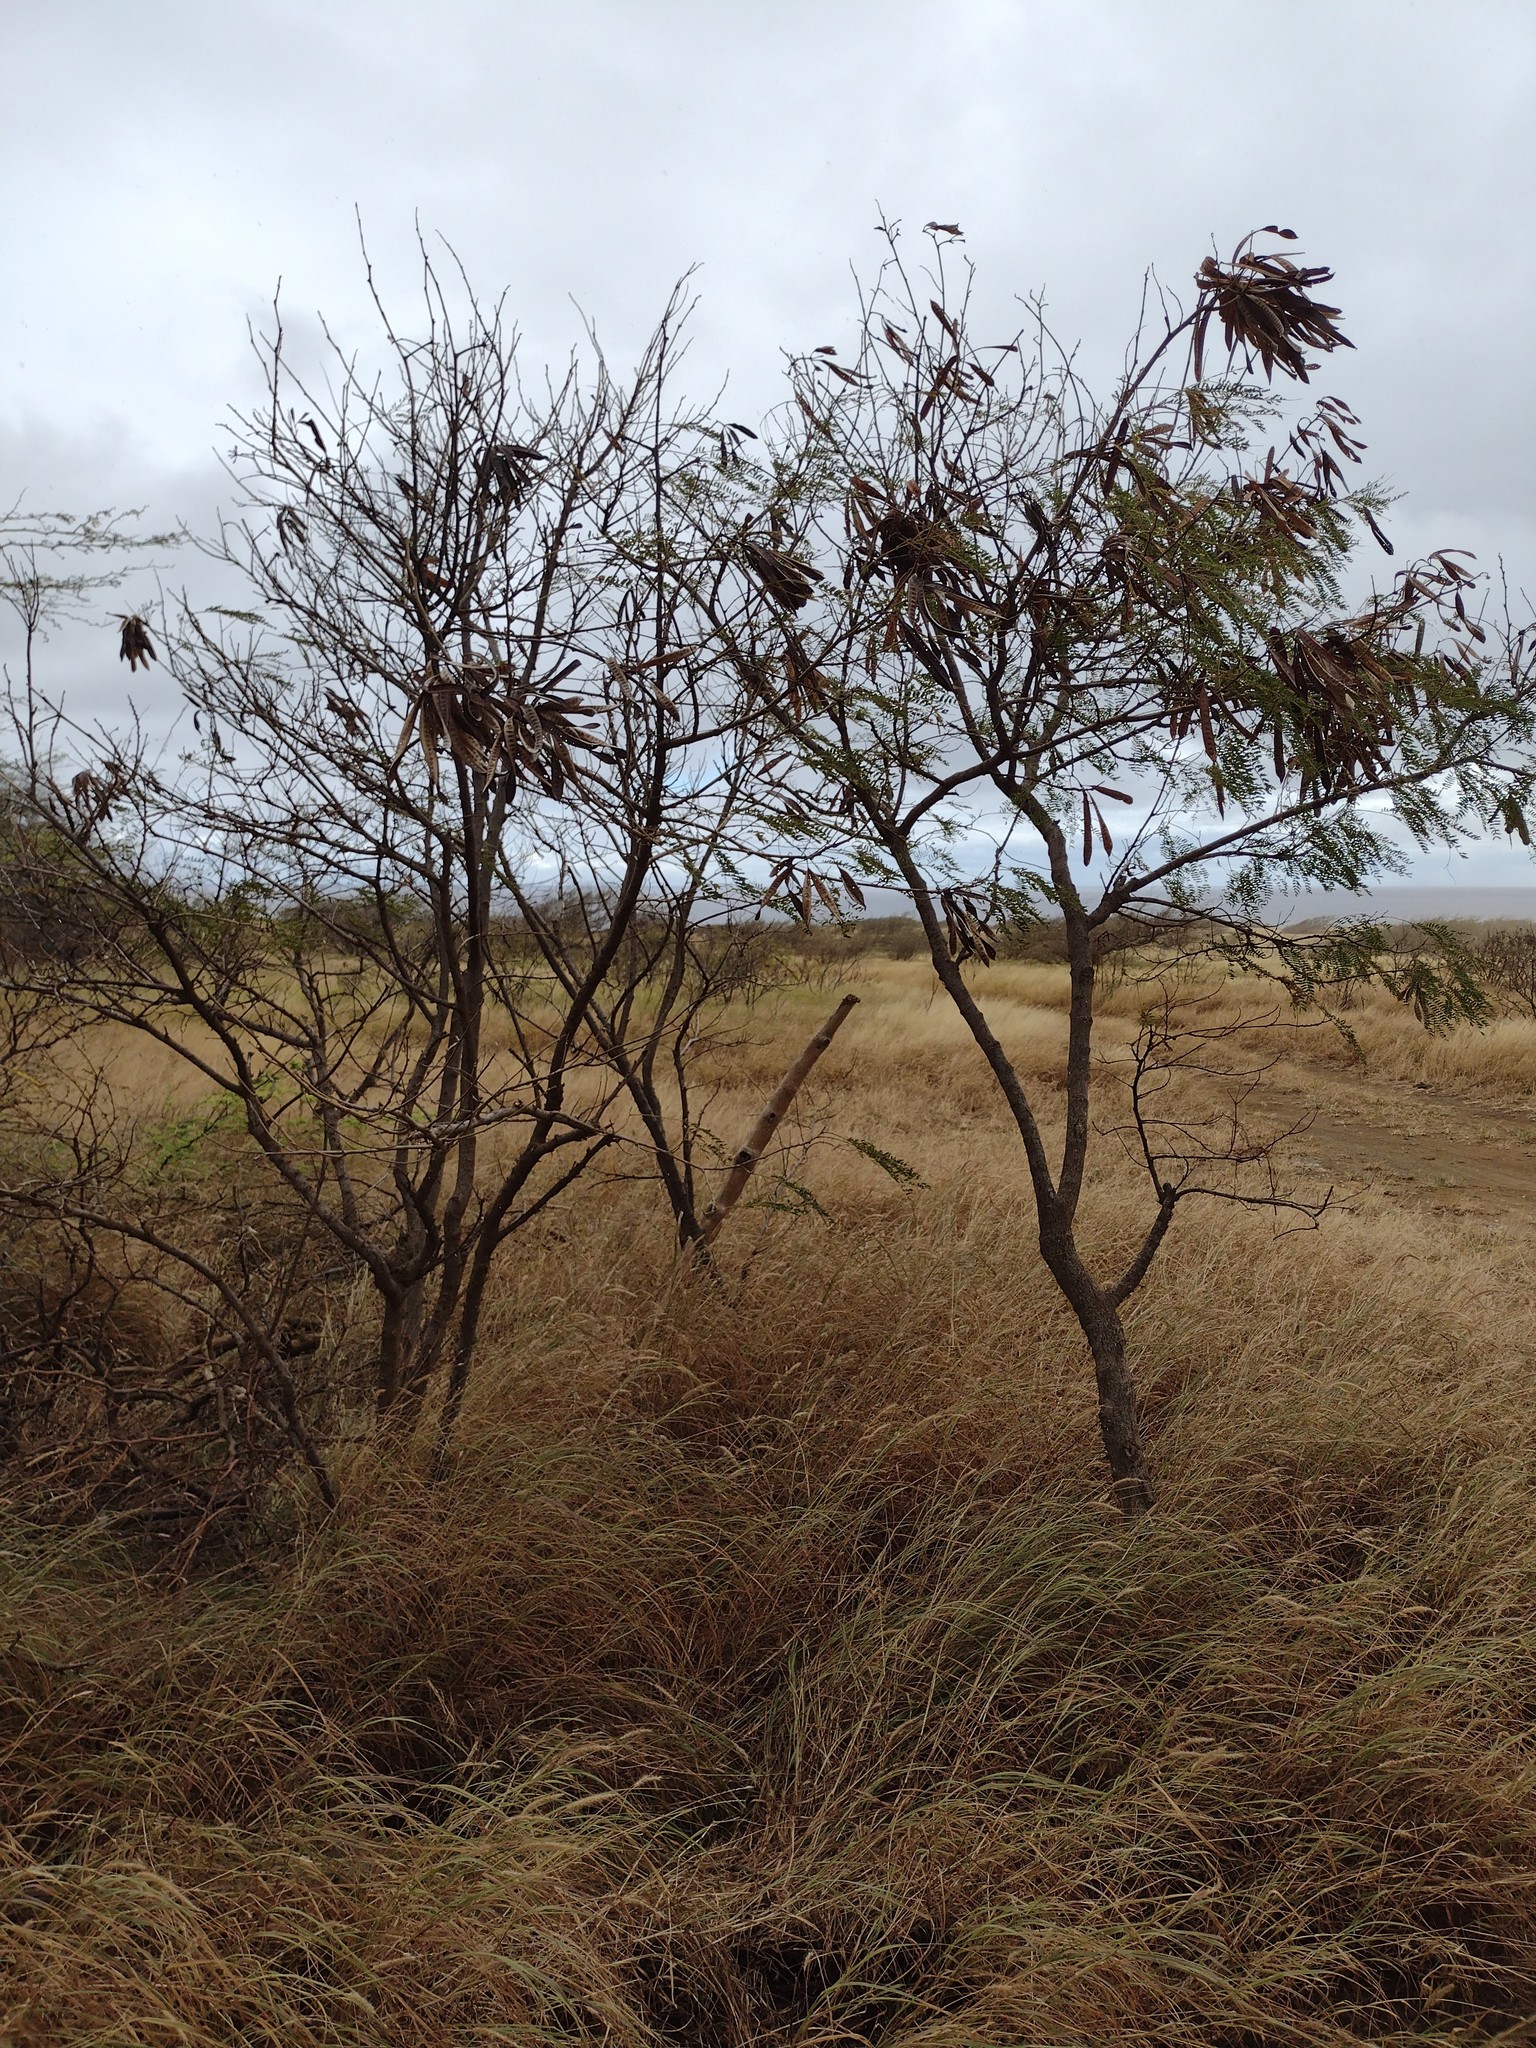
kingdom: Plantae
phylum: Tracheophyta
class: Magnoliopsida
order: Fabales
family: Fabaceae
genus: Leucaena
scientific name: Leucaena leucocephala
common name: White leadtree
